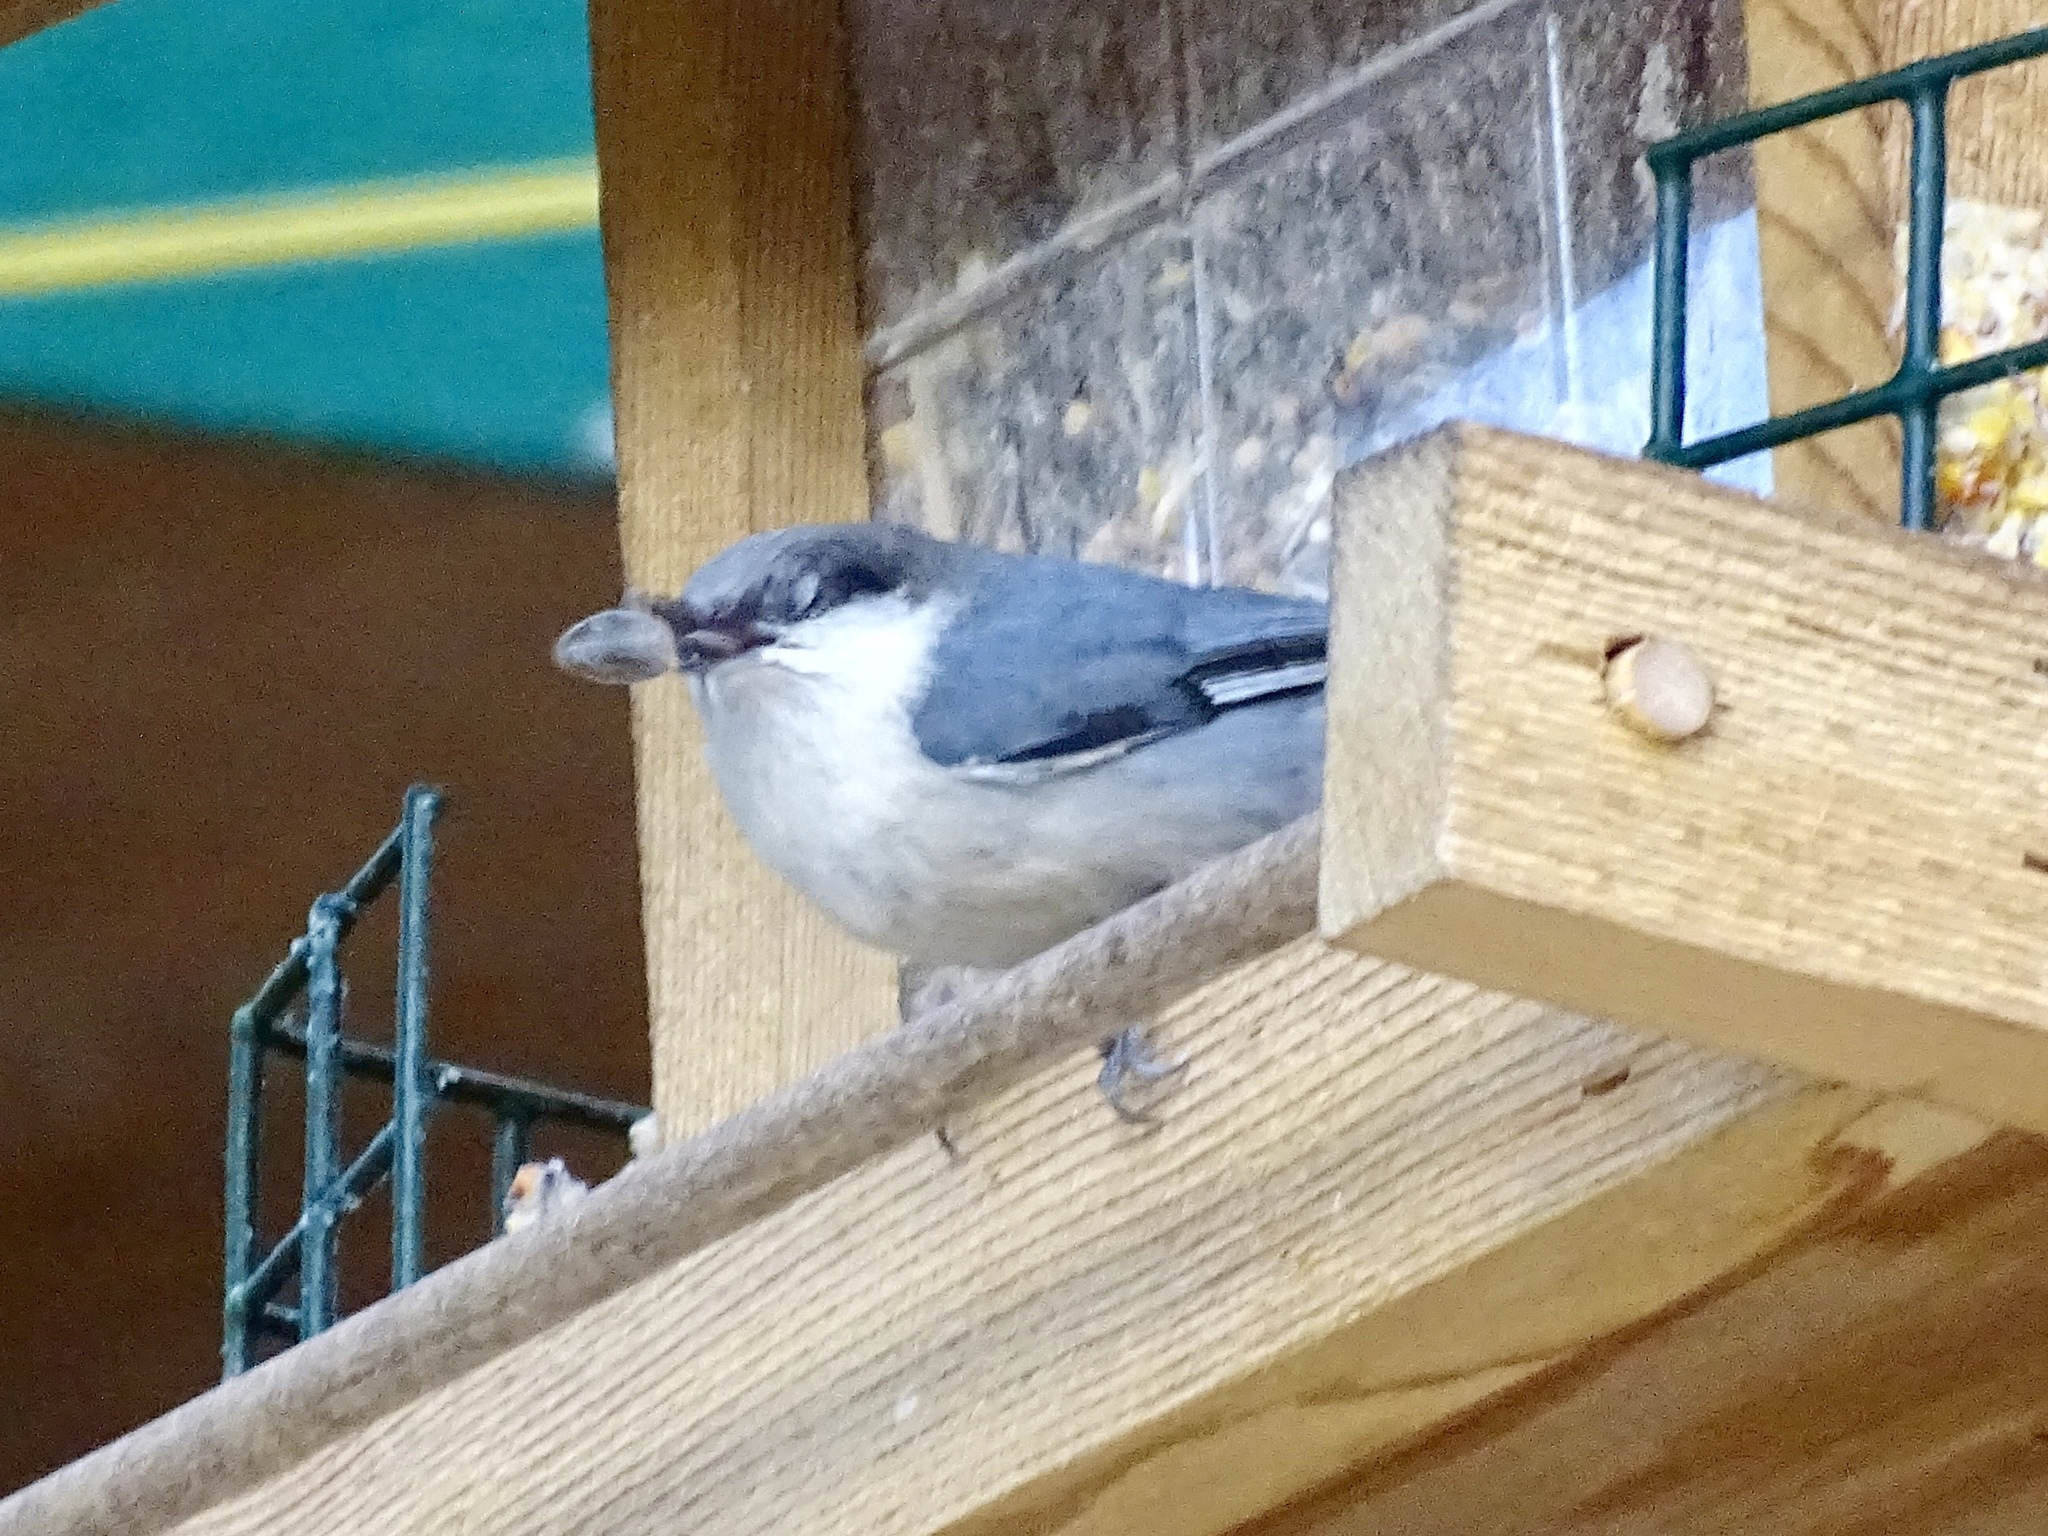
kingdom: Animalia
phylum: Chordata
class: Aves
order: Passeriformes
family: Sittidae
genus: Sitta
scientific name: Sitta pygmaea
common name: Pygmy nuthatch
